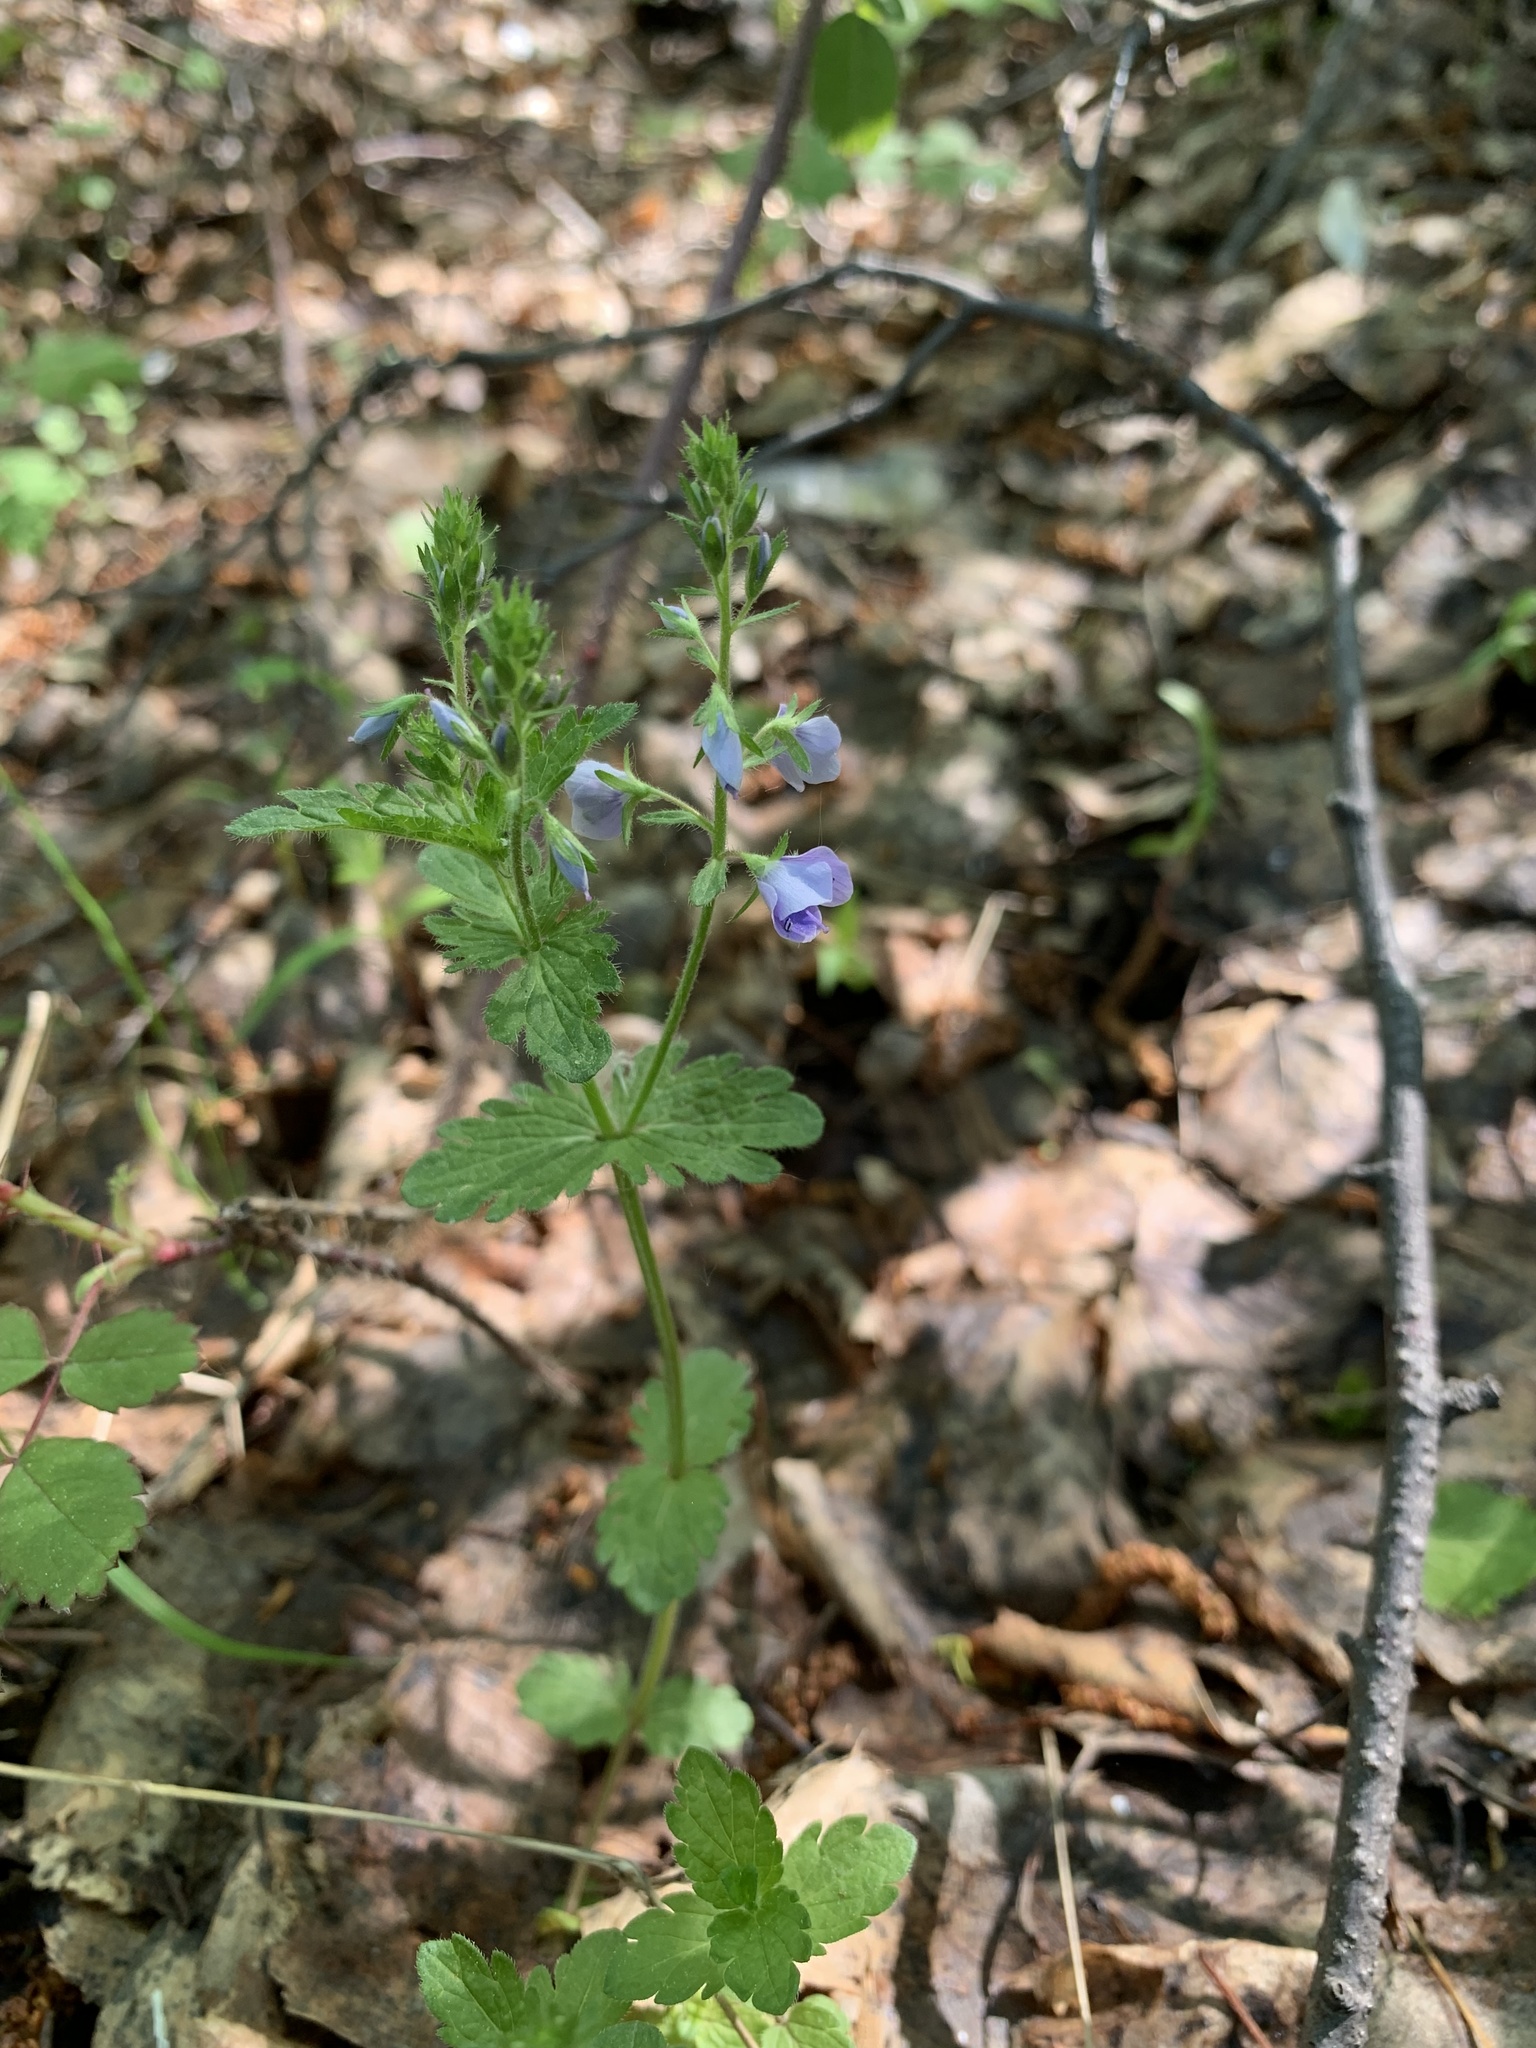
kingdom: Plantae
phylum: Tracheophyta
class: Magnoliopsida
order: Lamiales
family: Plantaginaceae
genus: Veronica
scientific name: Veronica chamaedrys
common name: Germander speedwell
